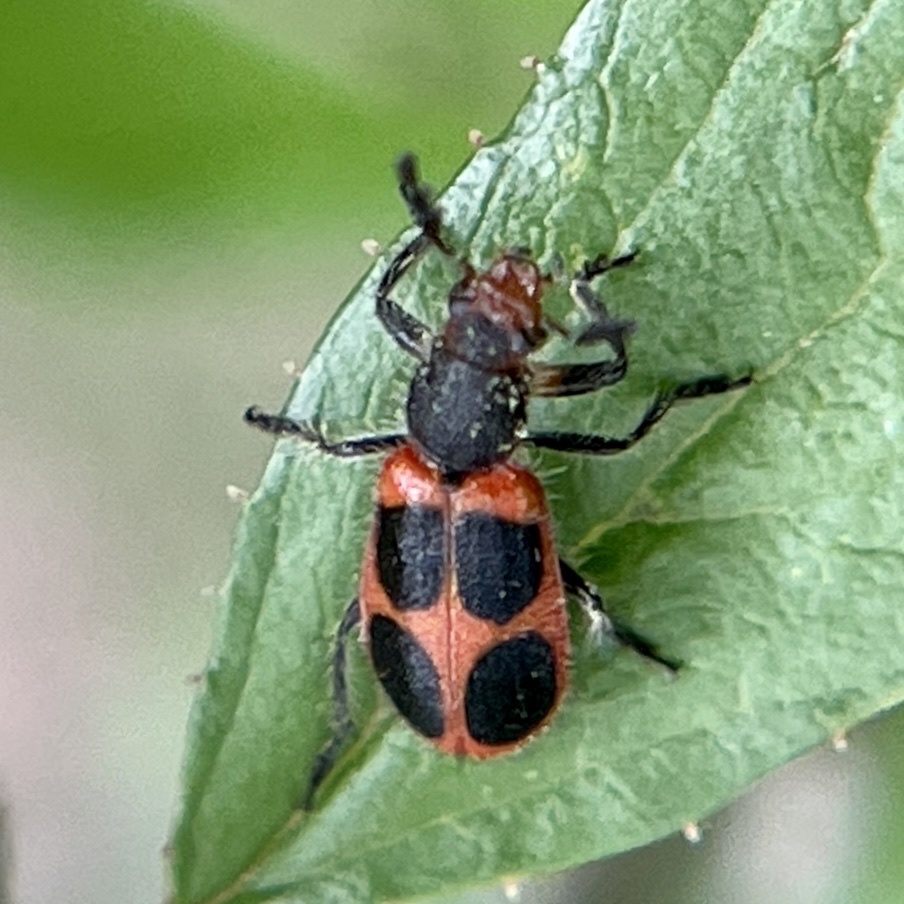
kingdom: Animalia
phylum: Arthropoda
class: Insecta
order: Coleoptera
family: Cleridae
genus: Pelonides
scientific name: Pelonides granulatipennis
